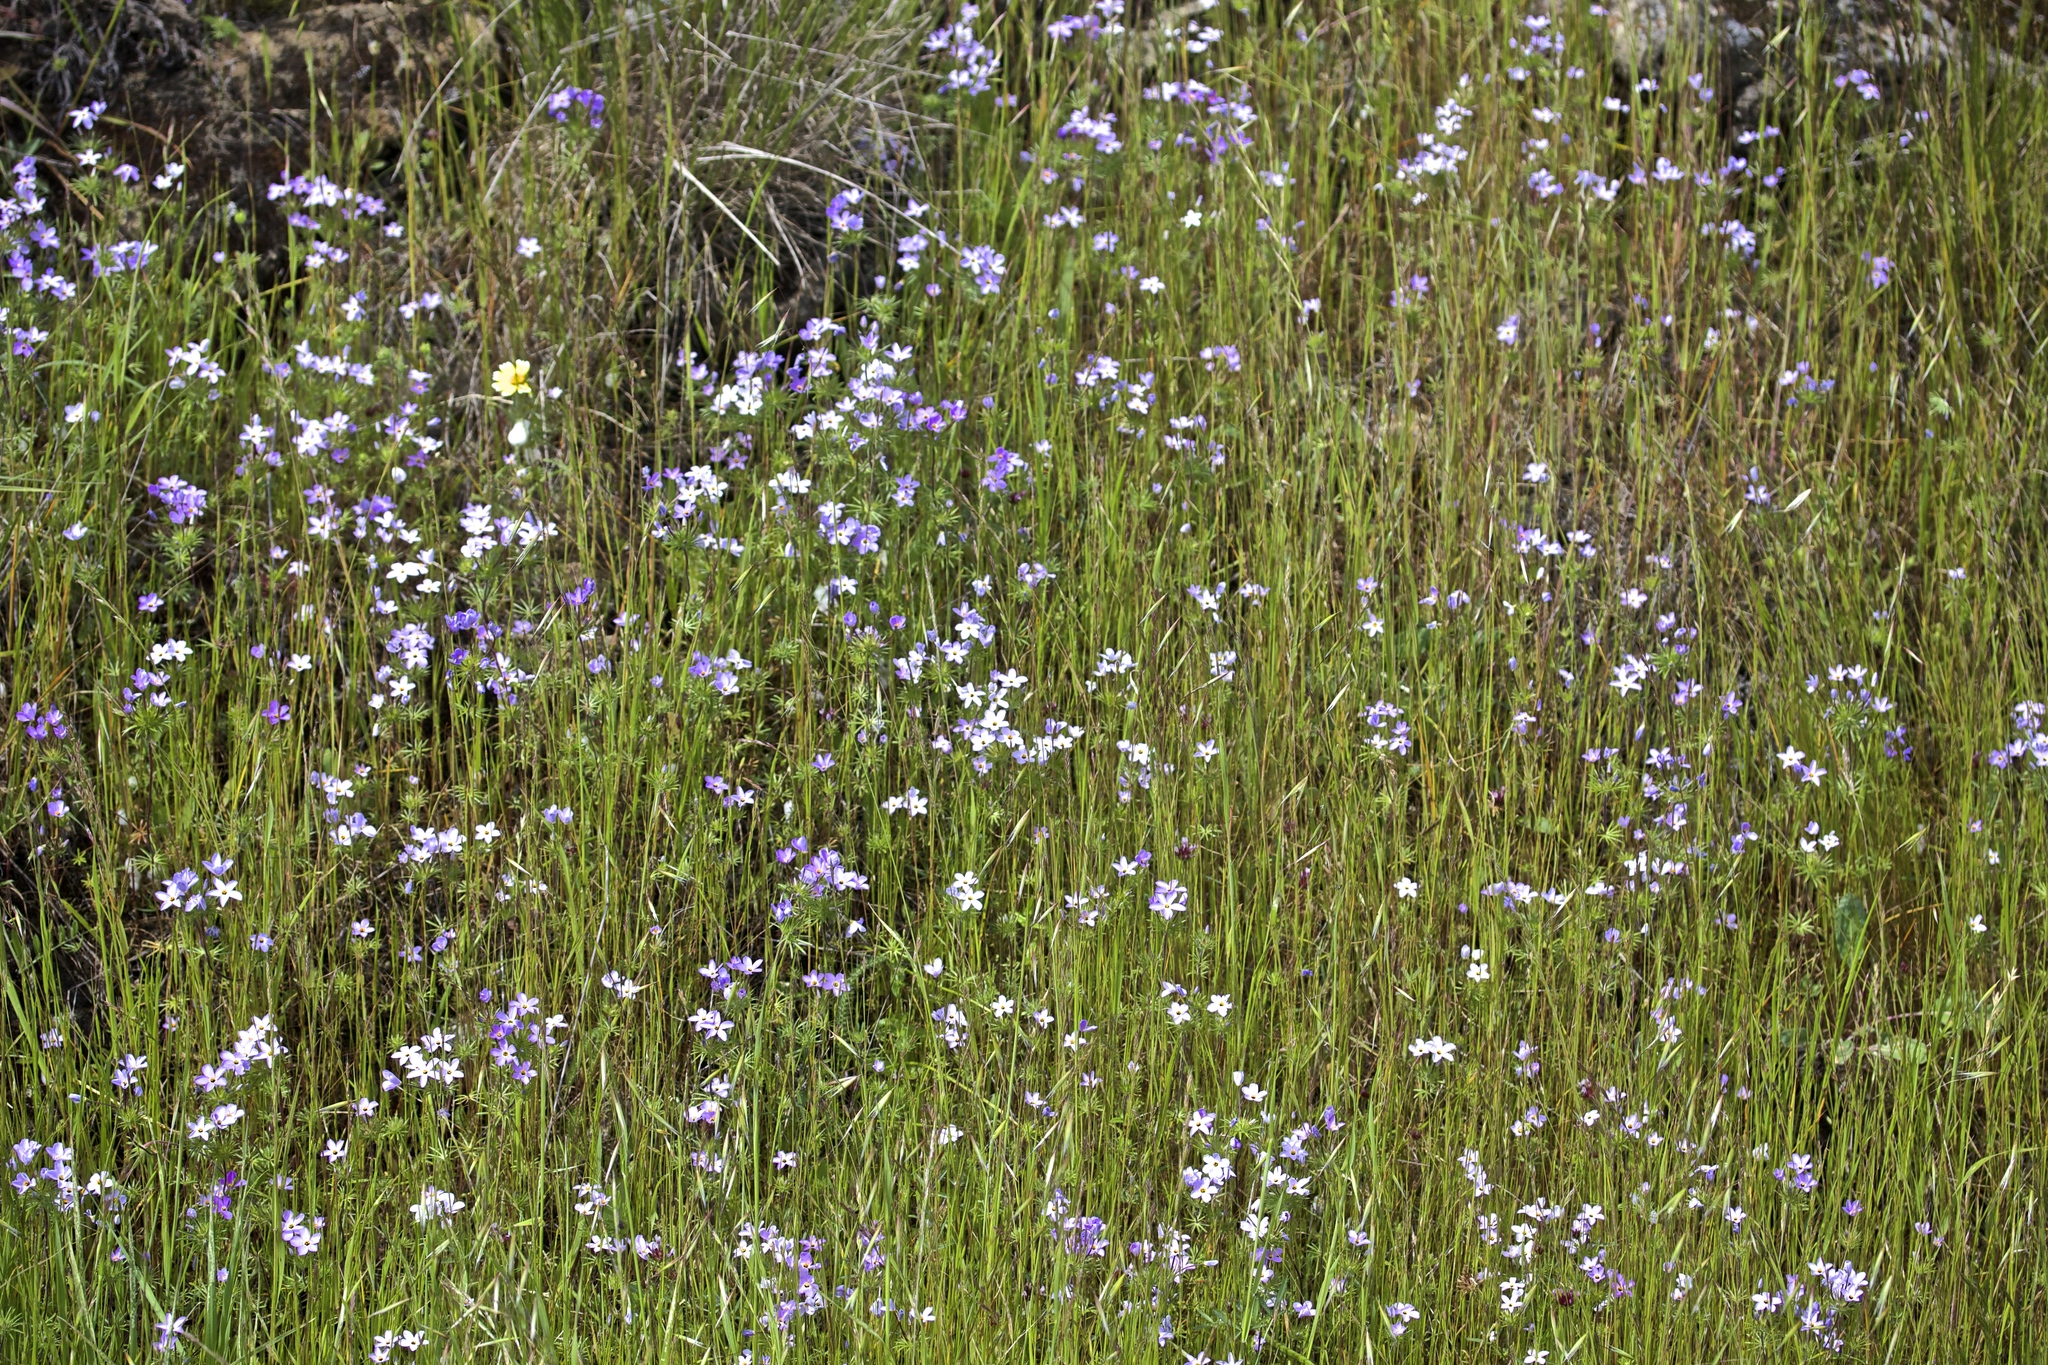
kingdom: Plantae
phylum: Tracheophyta
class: Magnoliopsida
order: Ericales
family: Polemoniaceae
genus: Leptosiphon
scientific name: Leptosiphon androsaceus
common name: False babystars
